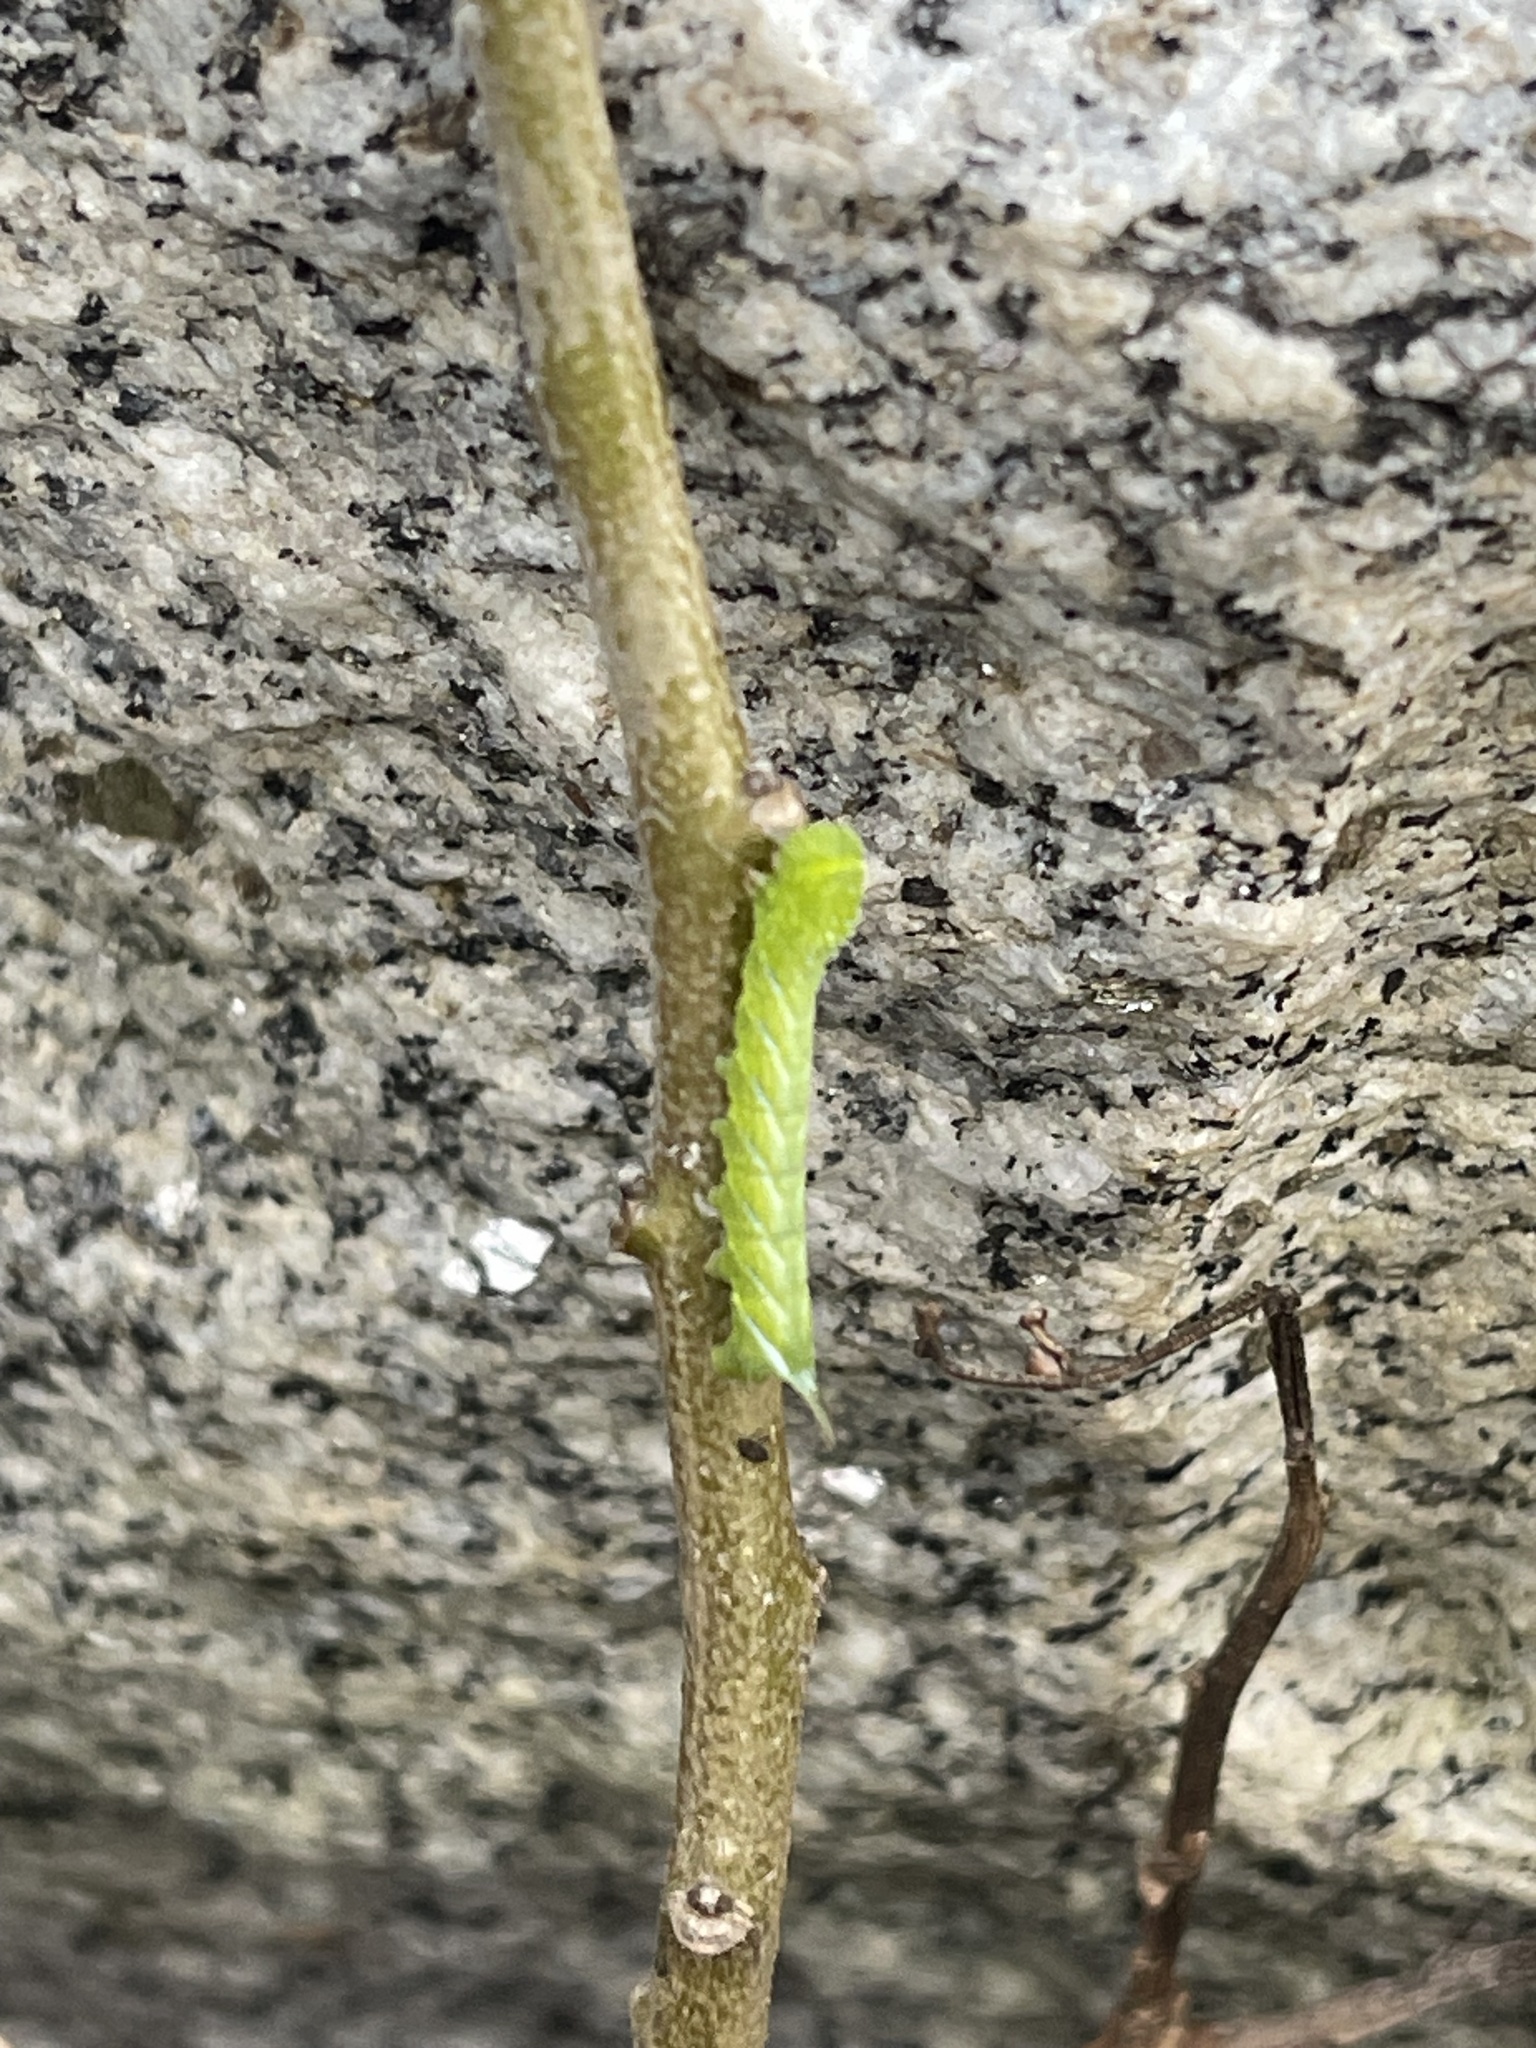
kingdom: Animalia
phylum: Arthropoda
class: Insecta
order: Lepidoptera
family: Sphingidae
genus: Manduca
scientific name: Manduca sexta
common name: Carolina sphinx
